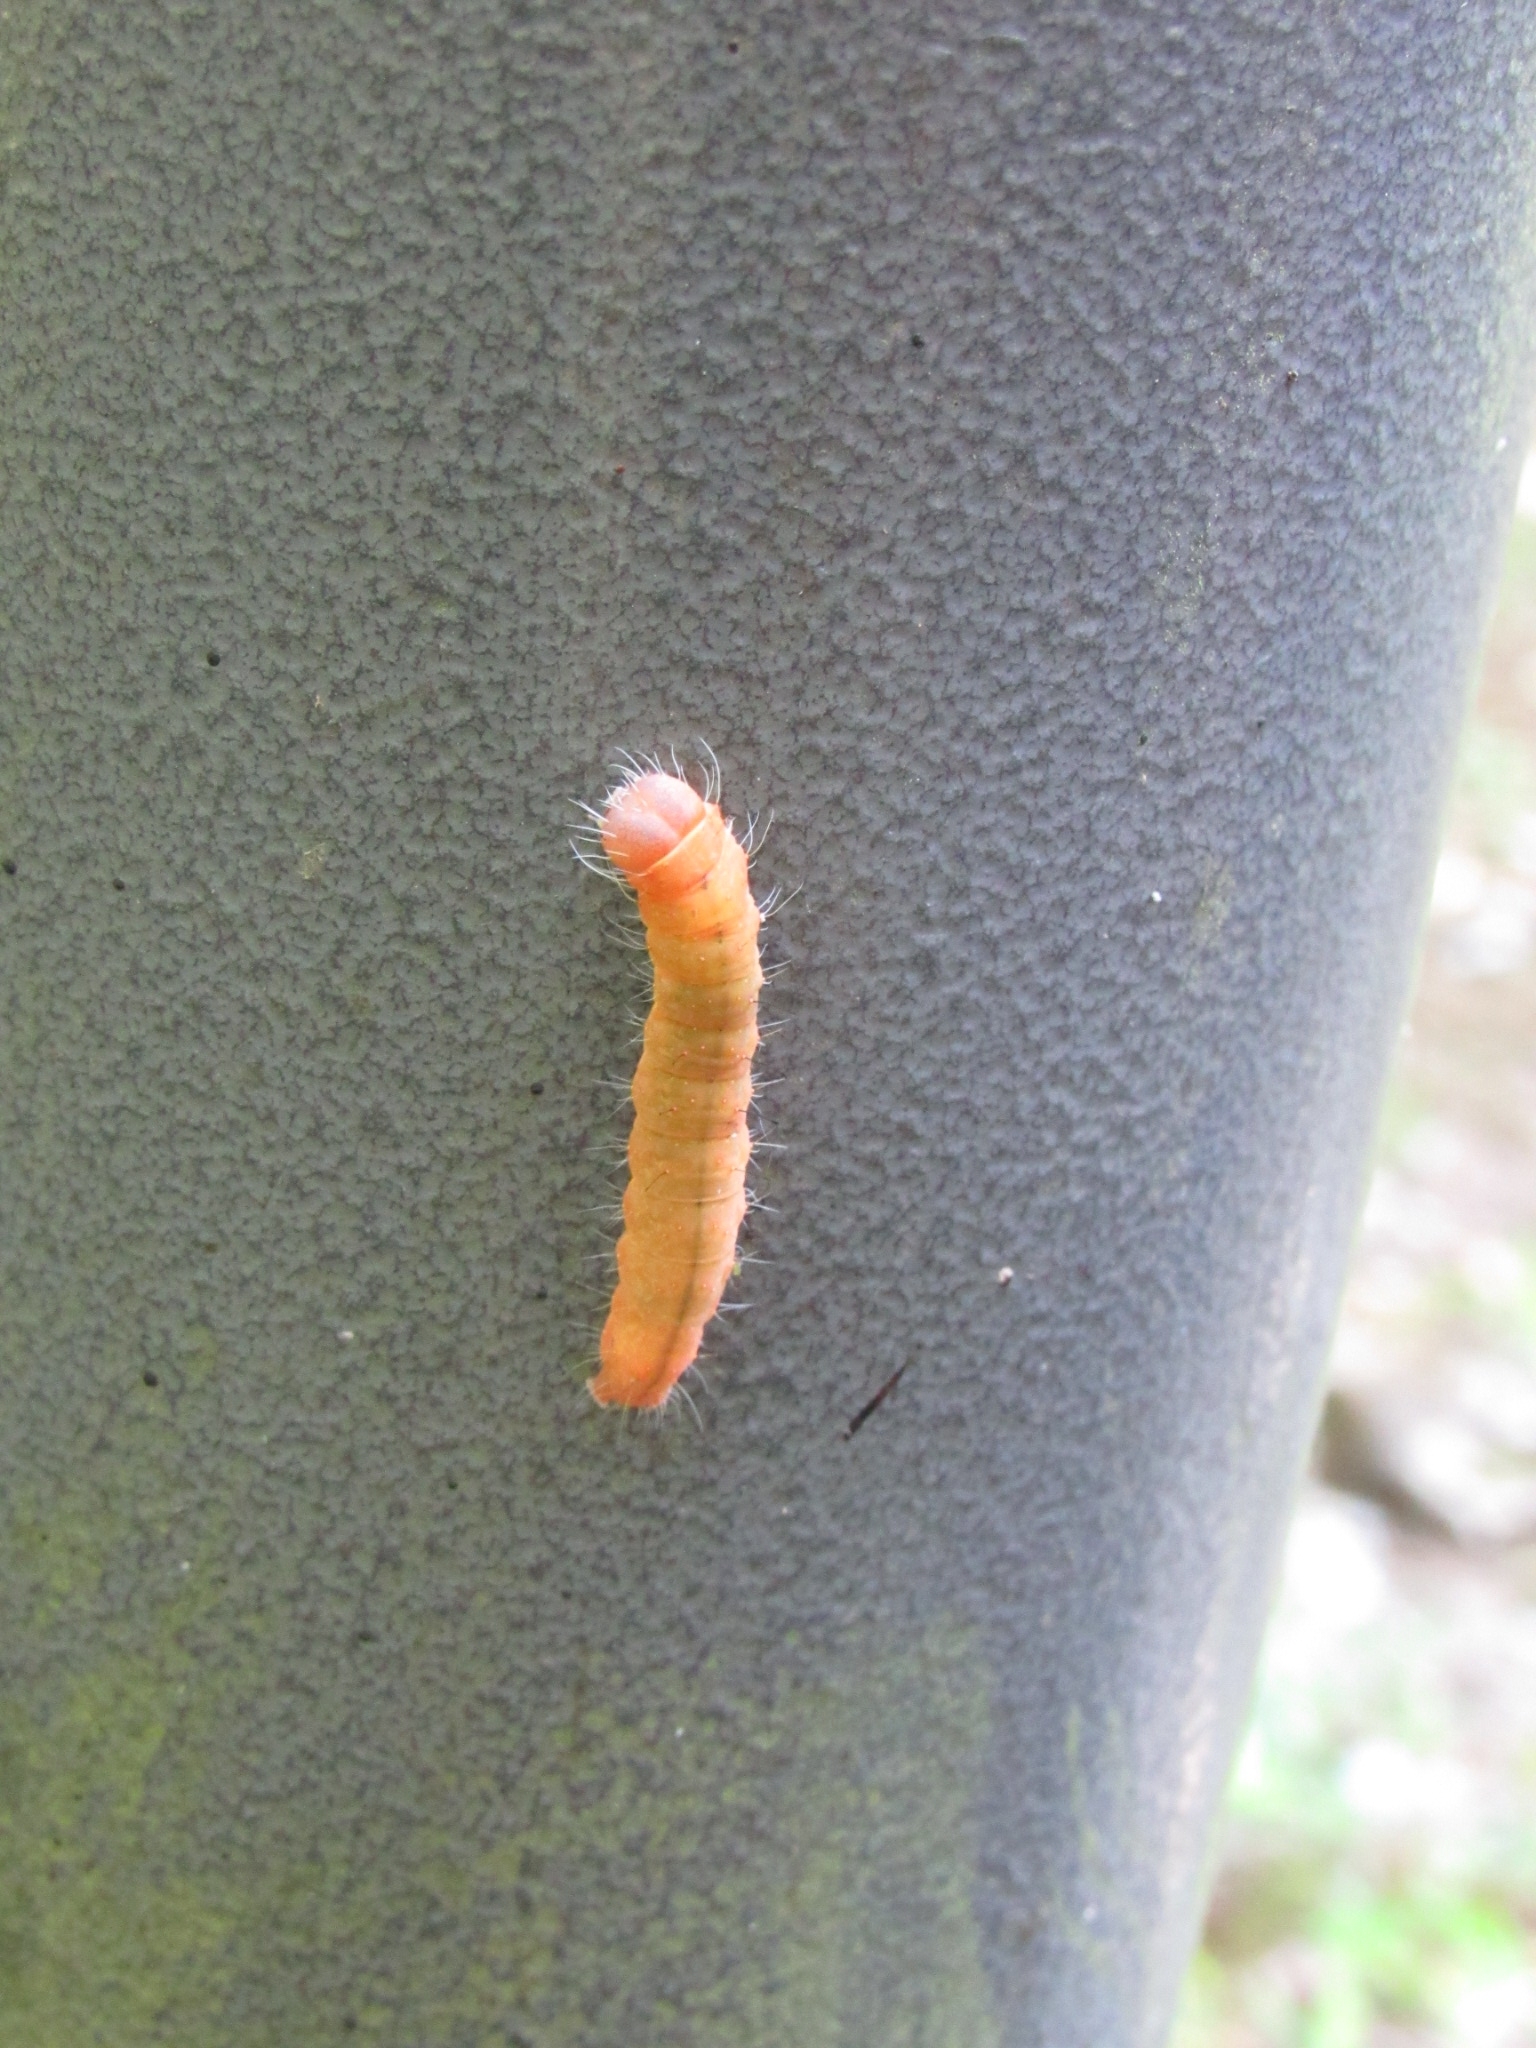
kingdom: Animalia
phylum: Arthropoda
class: Insecta
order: Lepidoptera
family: Noctuidae
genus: Acronicta
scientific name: Acronicta afflicta
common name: Afflicted dagger moth
